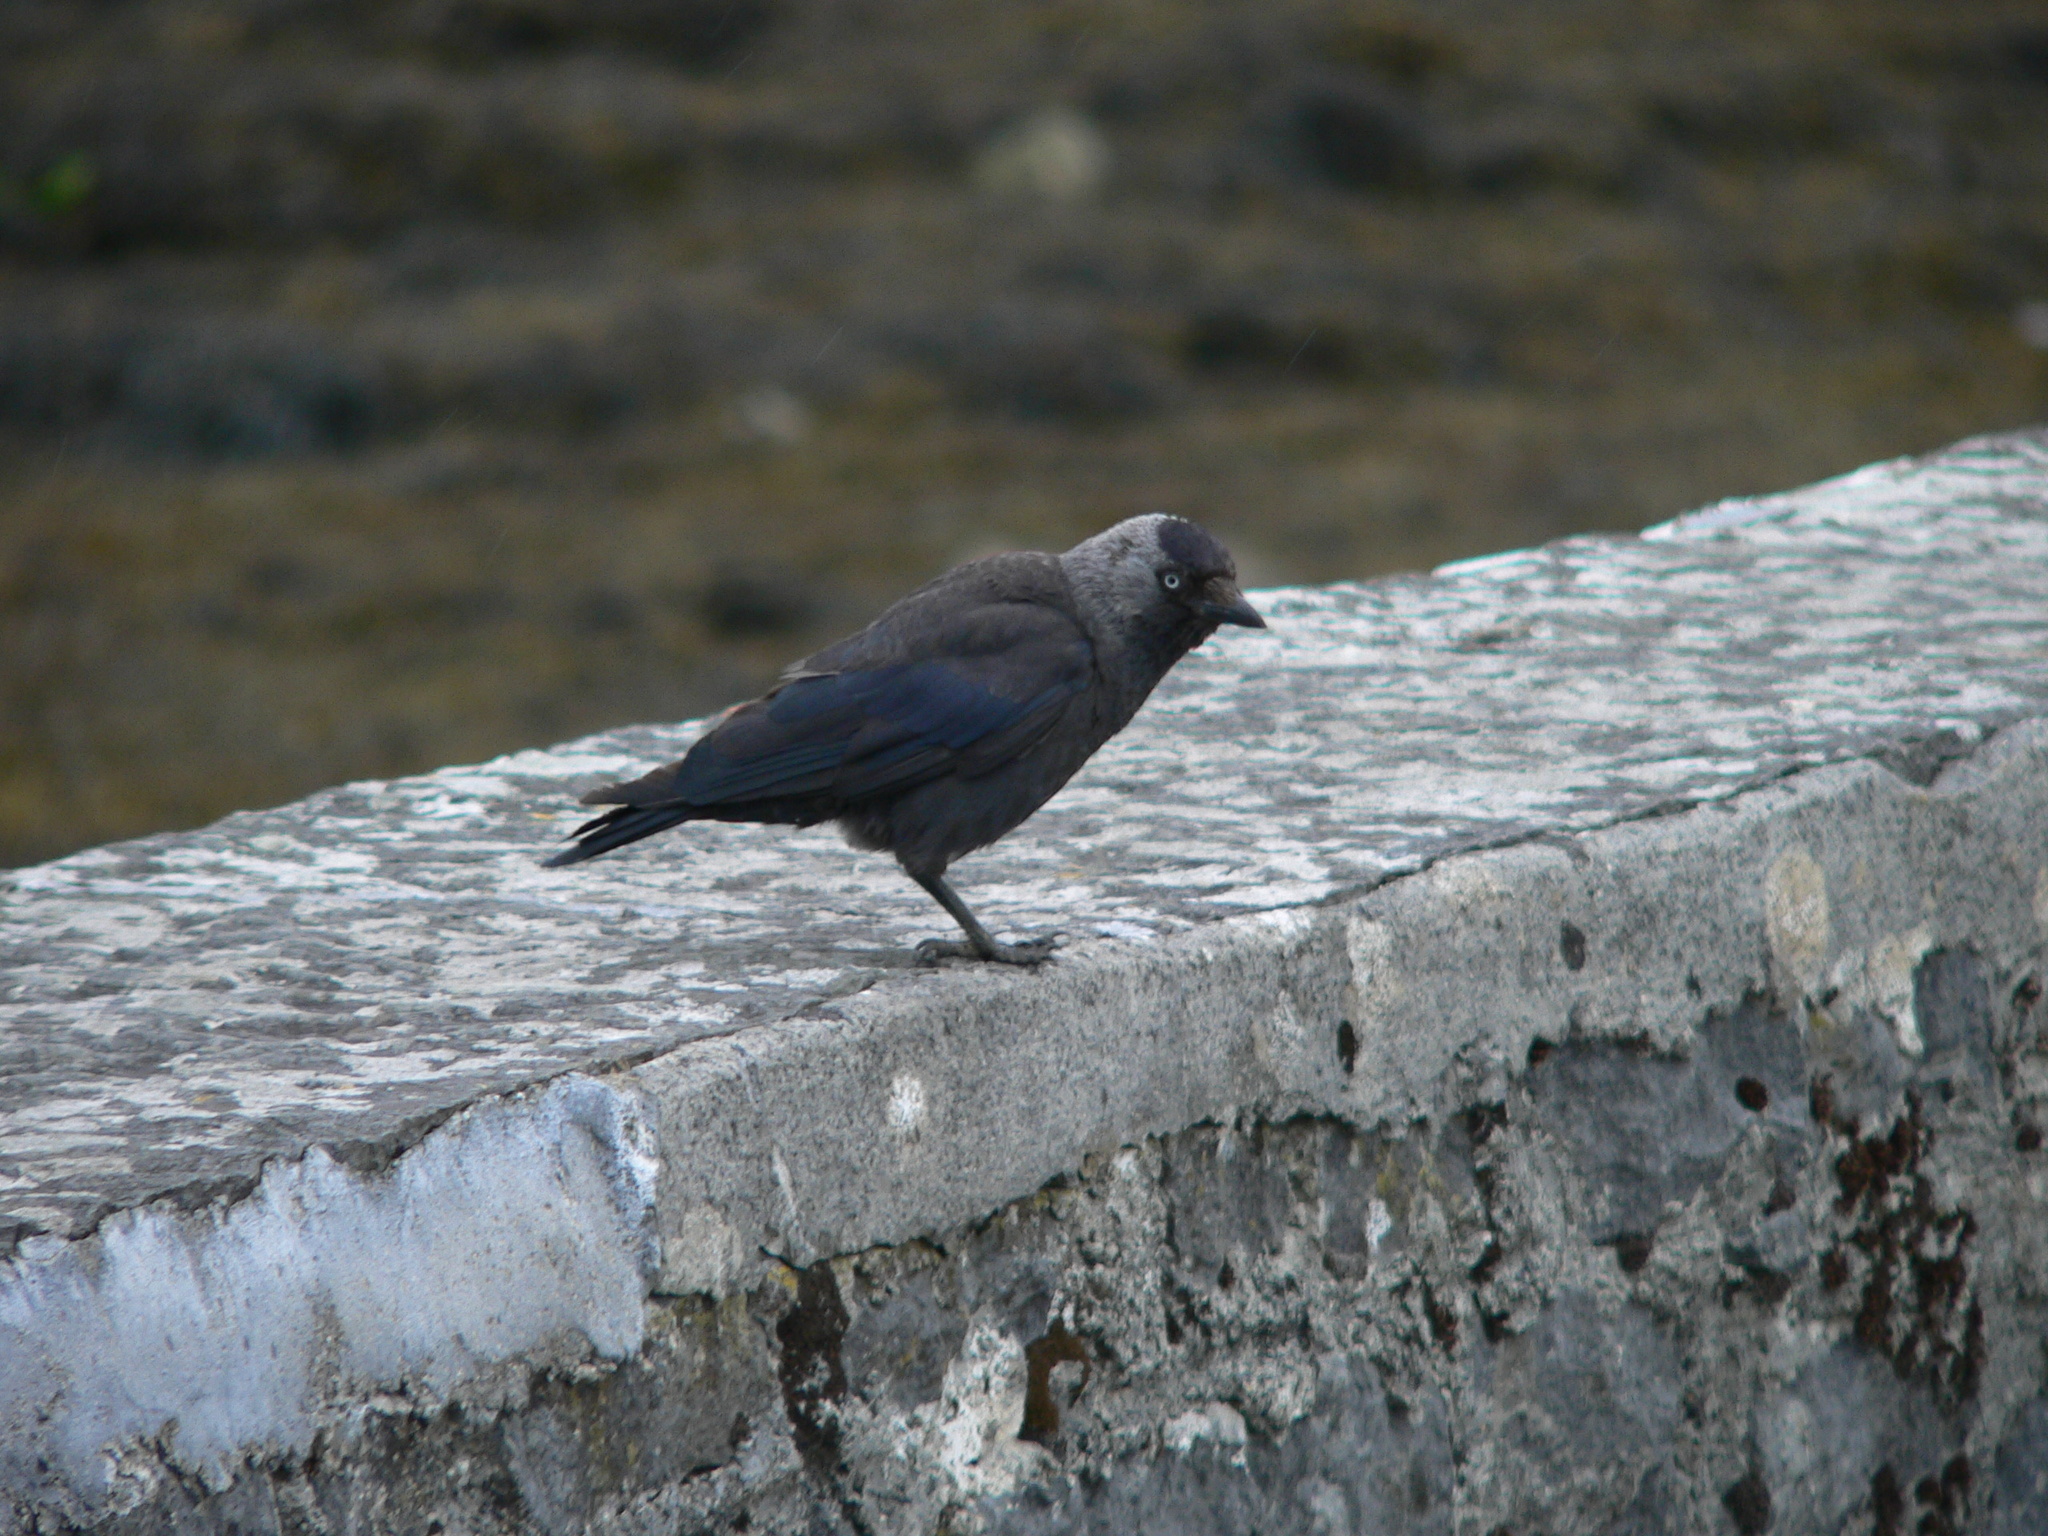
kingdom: Animalia
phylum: Chordata
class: Aves
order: Passeriformes
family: Corvidae
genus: Coloeus
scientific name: Coloeus monedula
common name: Western jackdaw
